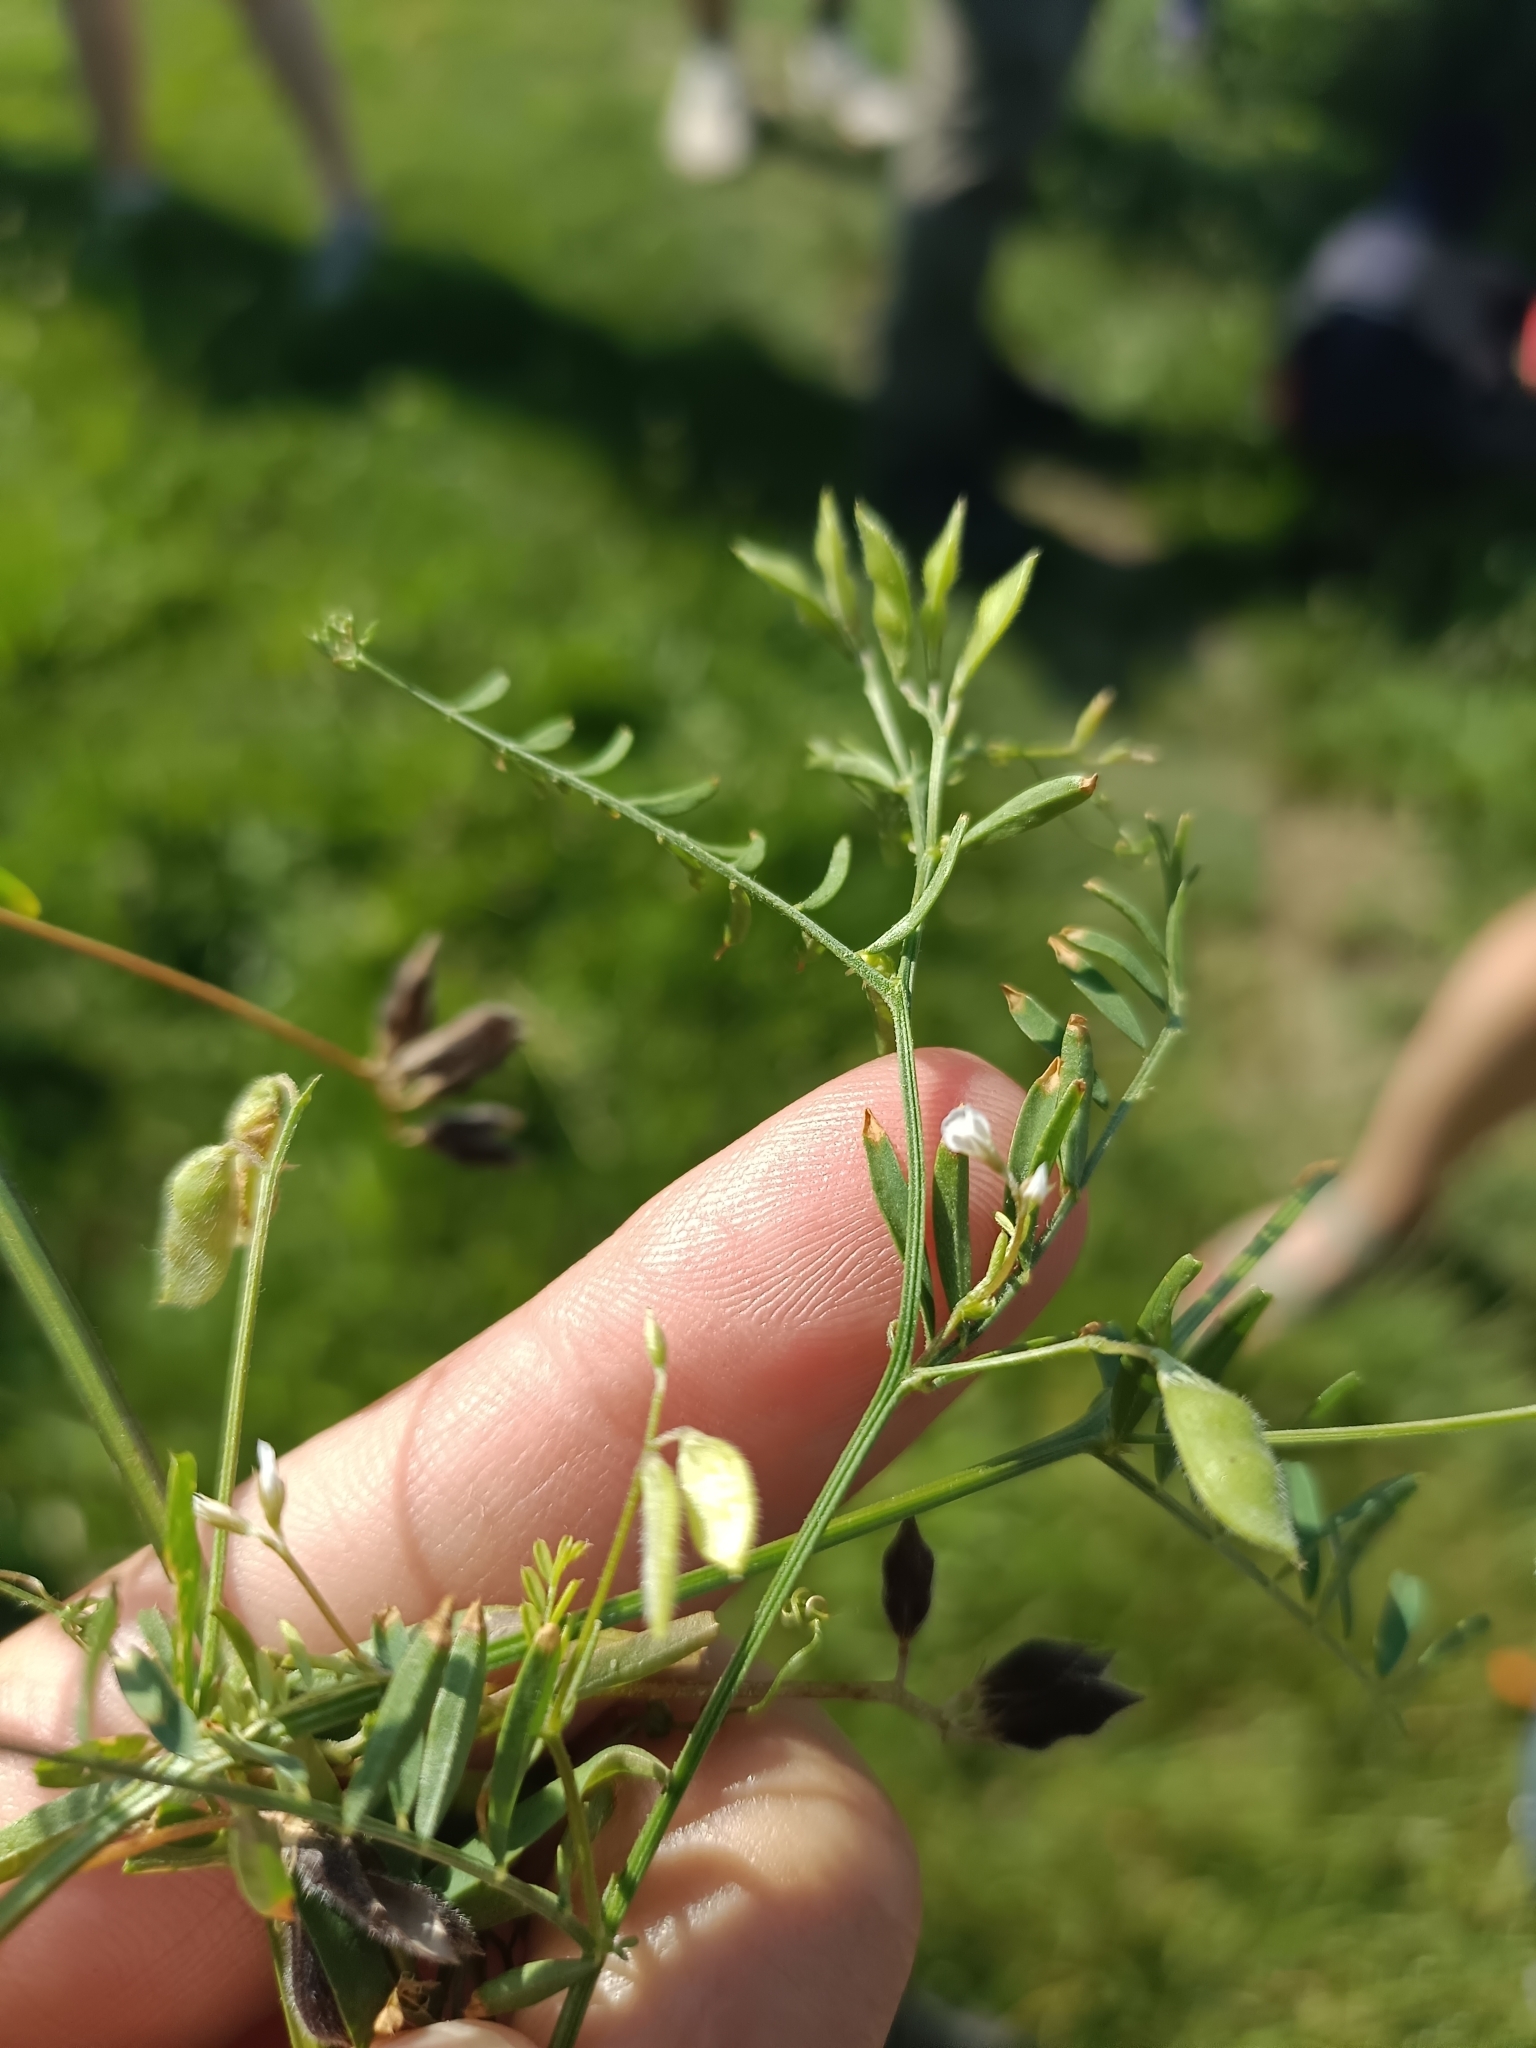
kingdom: Plantae
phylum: Tracheophyta
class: Magnoliopsida
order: Fabales
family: Fabaceae
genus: Vicia
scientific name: Vicia hirsuta
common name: Tiny vetch
